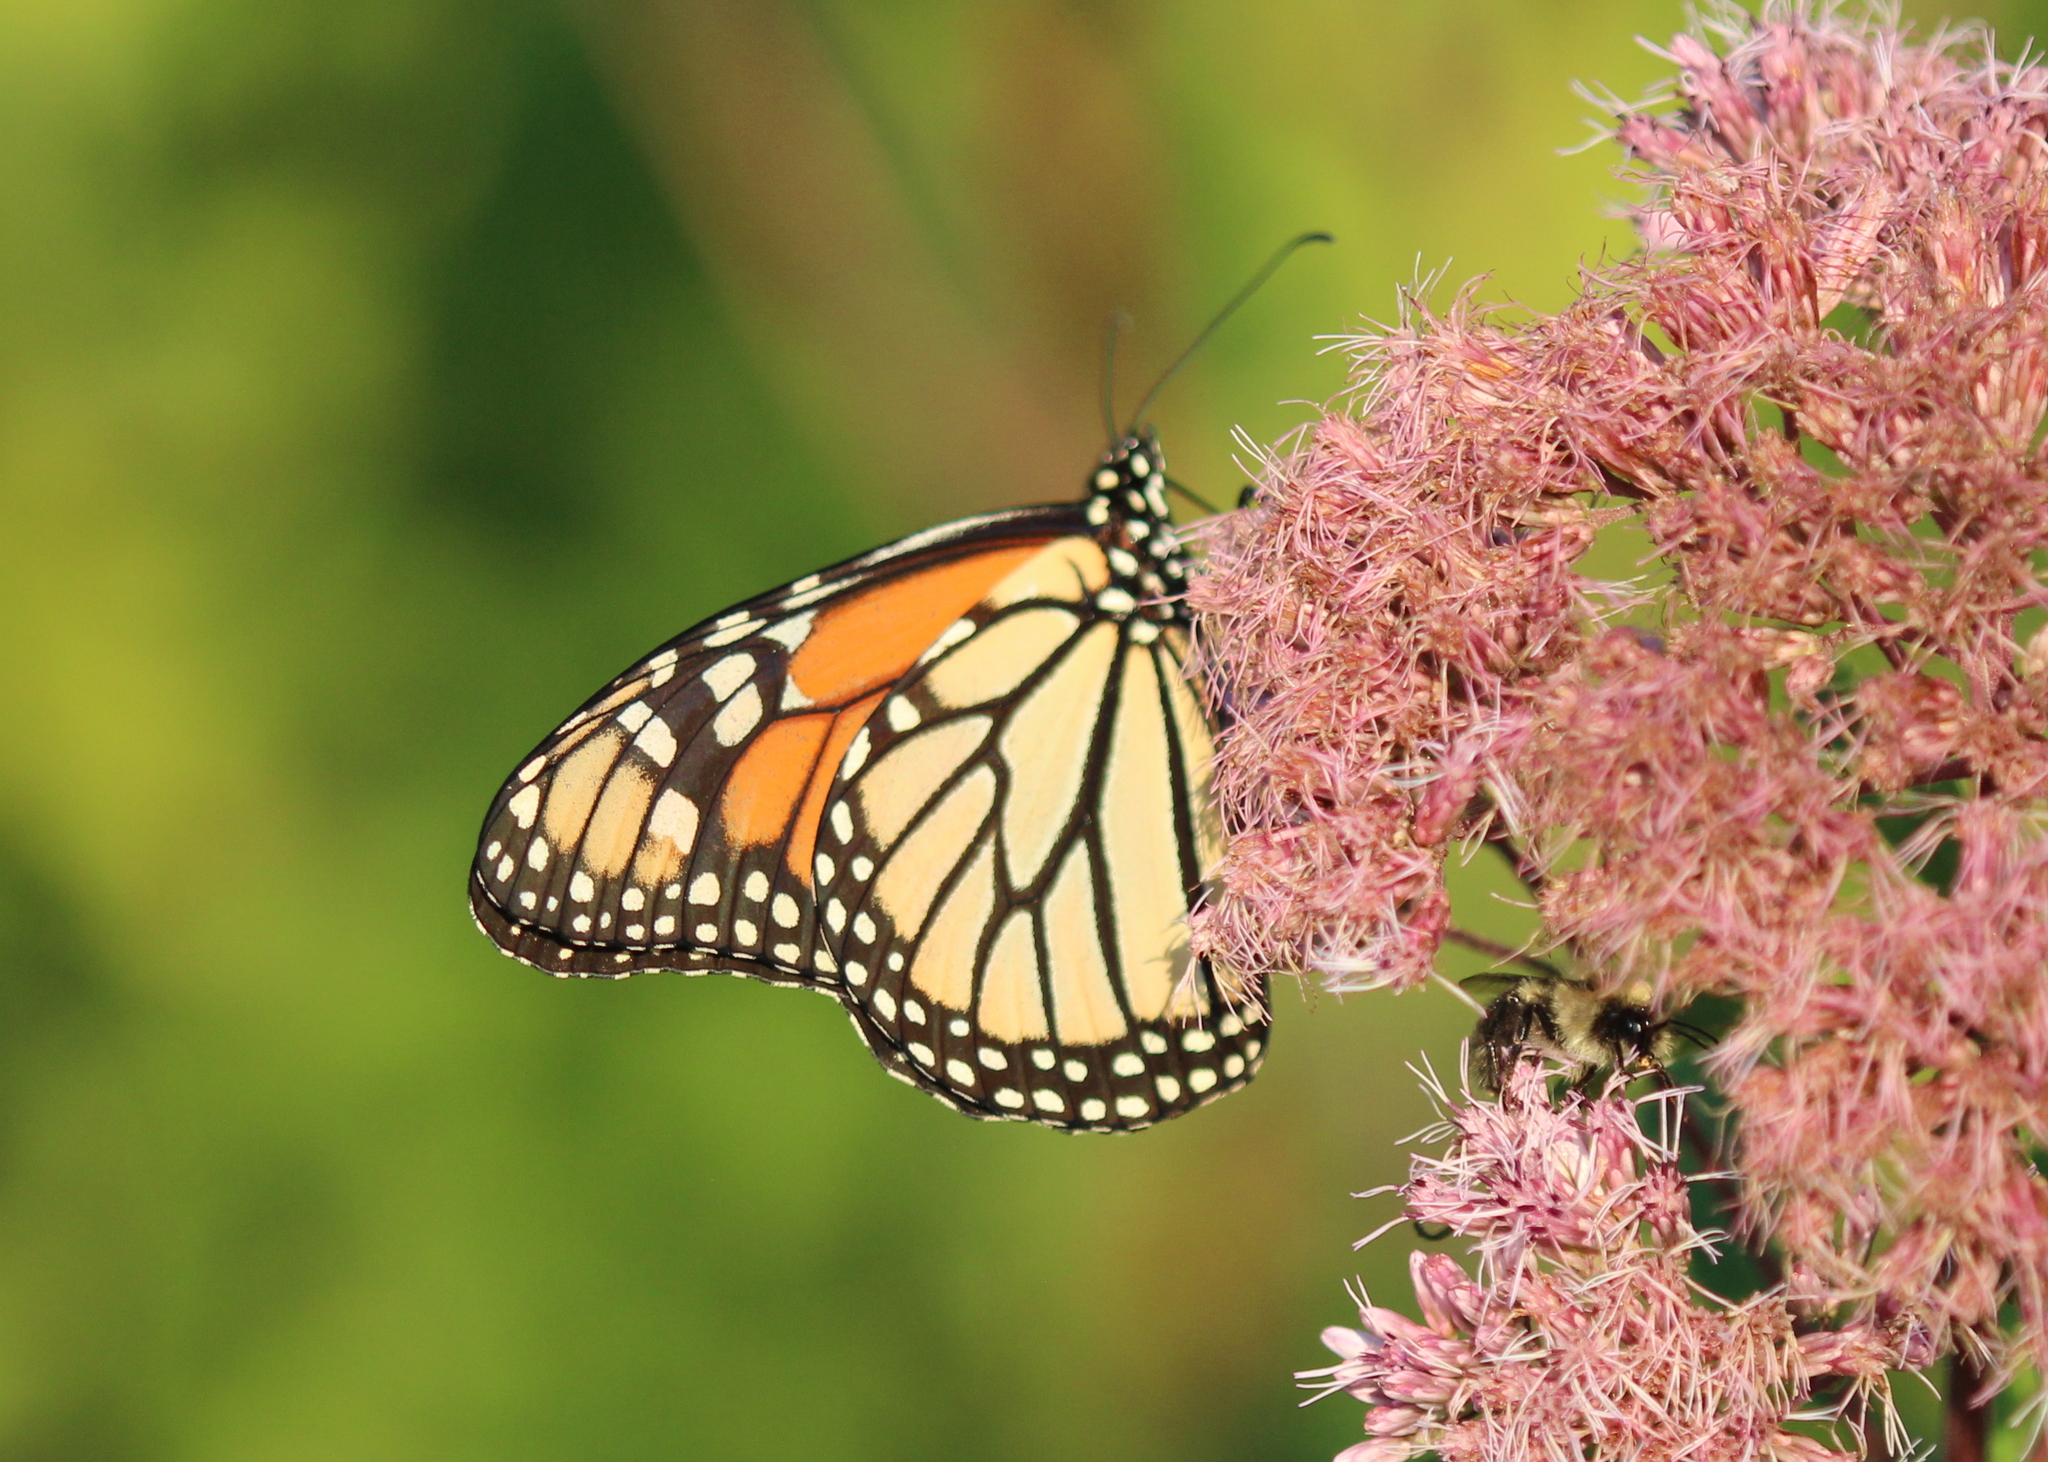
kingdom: Animalia
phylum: Arthropoda
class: Insecta
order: Lepidoptera
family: Nymphalidae
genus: Danaus
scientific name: Danaus plexippus
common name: Monarch
